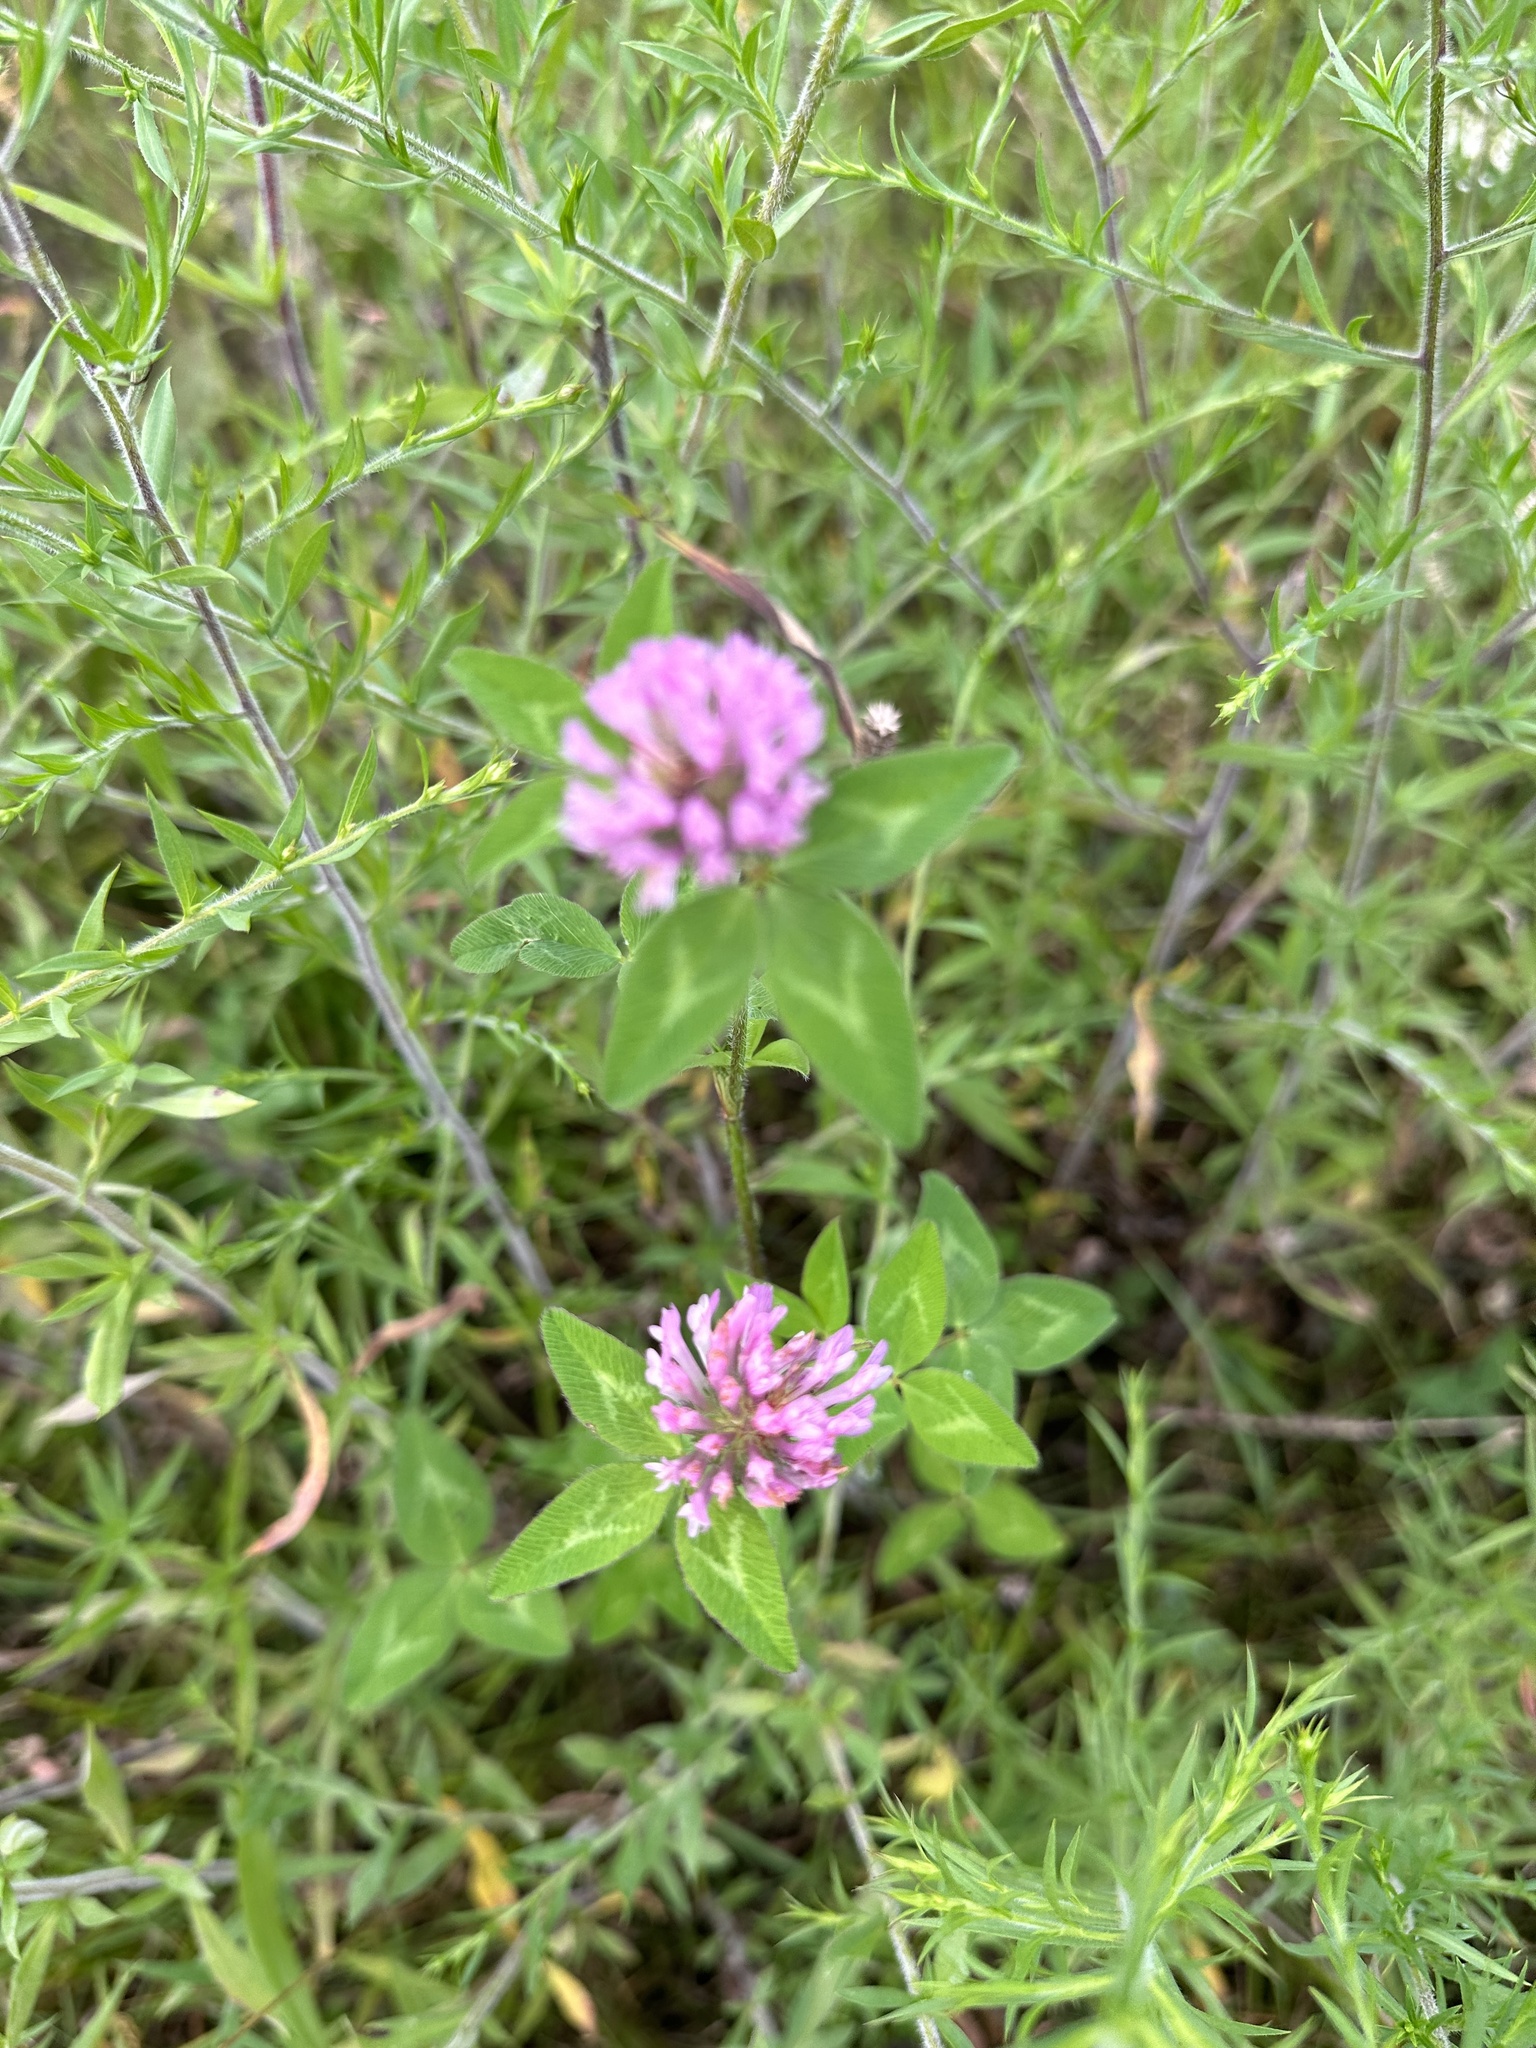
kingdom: Plantae
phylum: Tracheophyta
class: Magnoliopsida
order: Fabales
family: Fabaceae
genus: Trifolium
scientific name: Trifolium pratense
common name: Red clover
